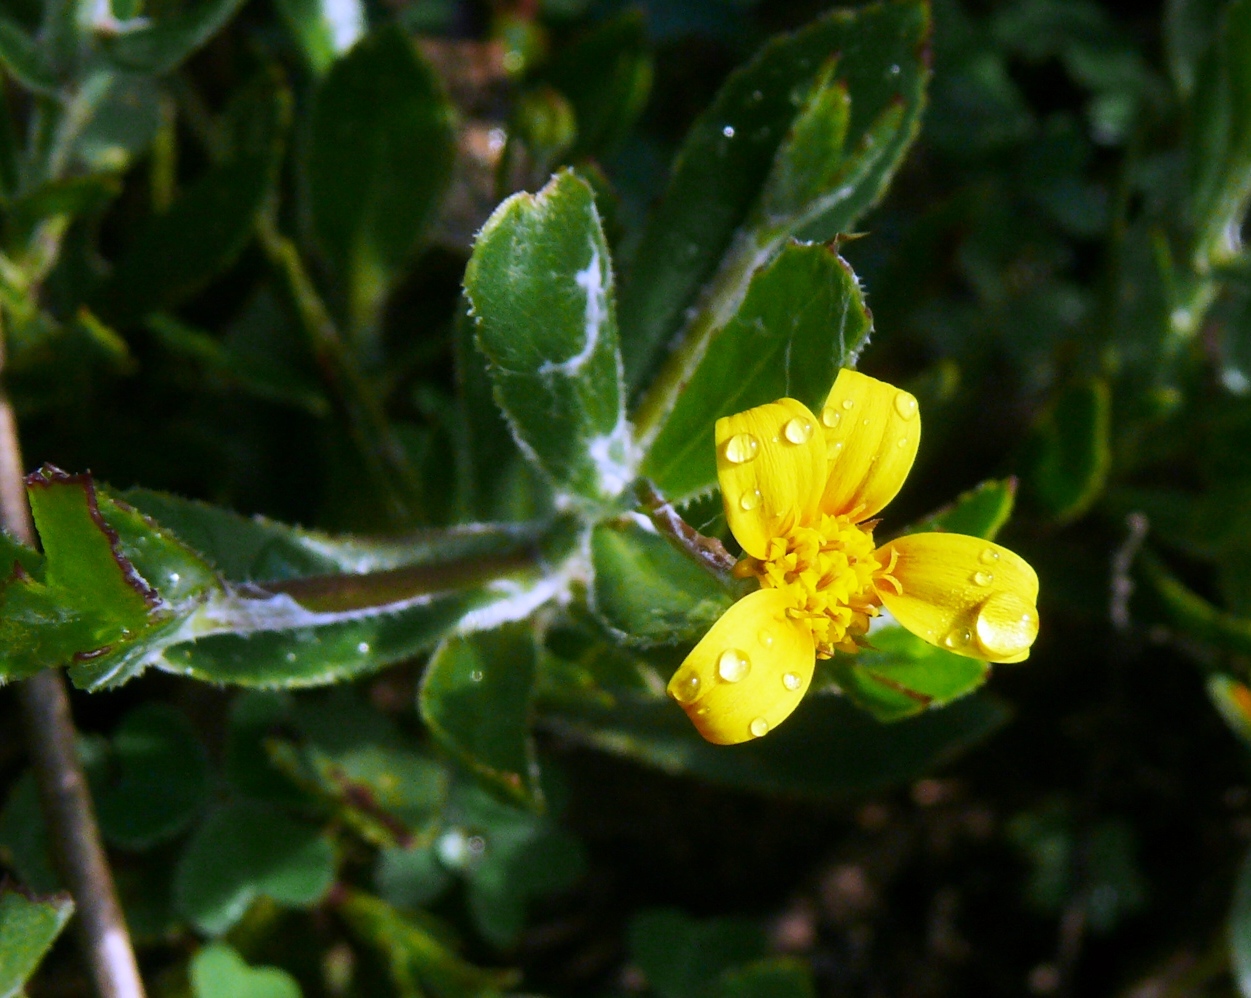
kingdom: Plantae
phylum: Tracheophyta
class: Magnoliopsida
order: Asterales
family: Asteraceae
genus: Osteospermum
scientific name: Osteospermum ciliatum
